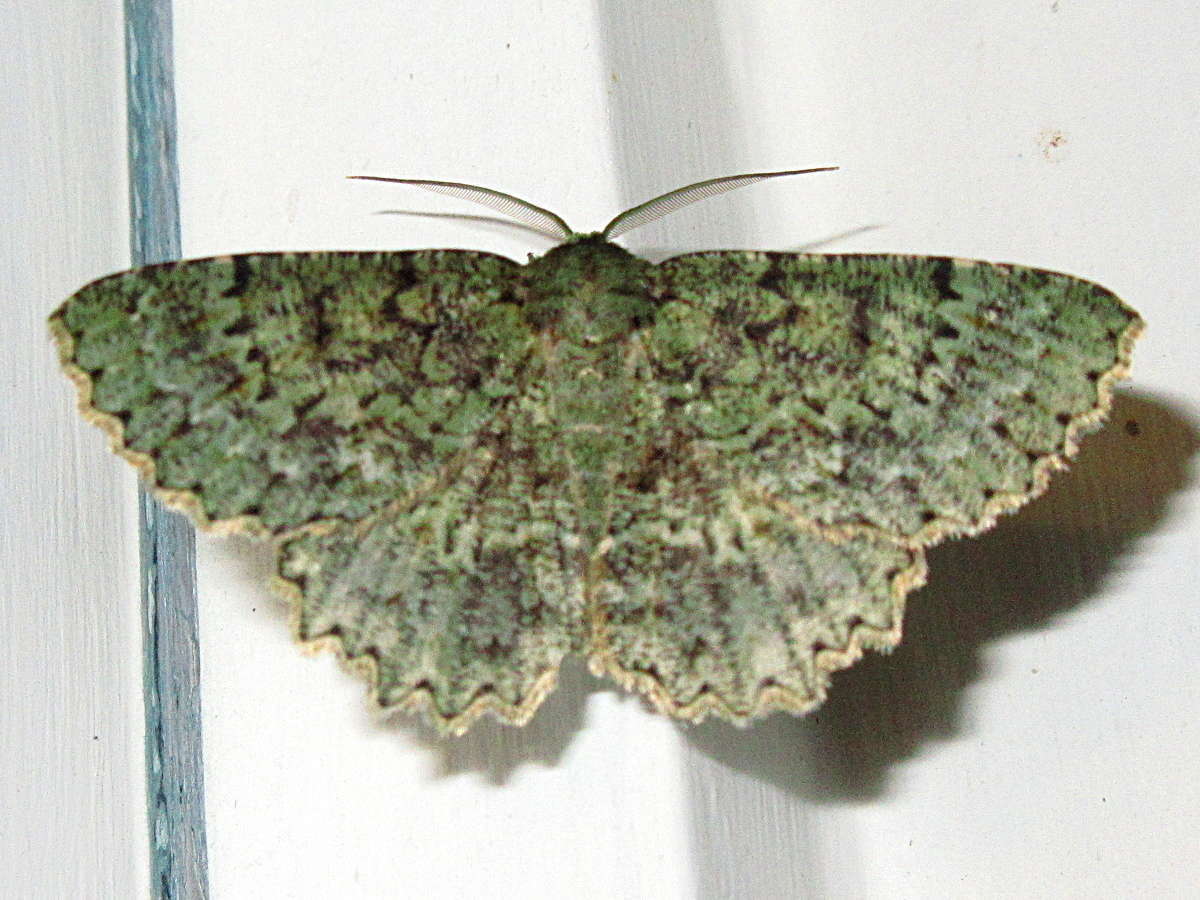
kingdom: Animalia
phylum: Arthropoda
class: Insecta
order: Lepidoptera
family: Geometridae
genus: Hypodoxa
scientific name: Hypodoxa muscosaria
